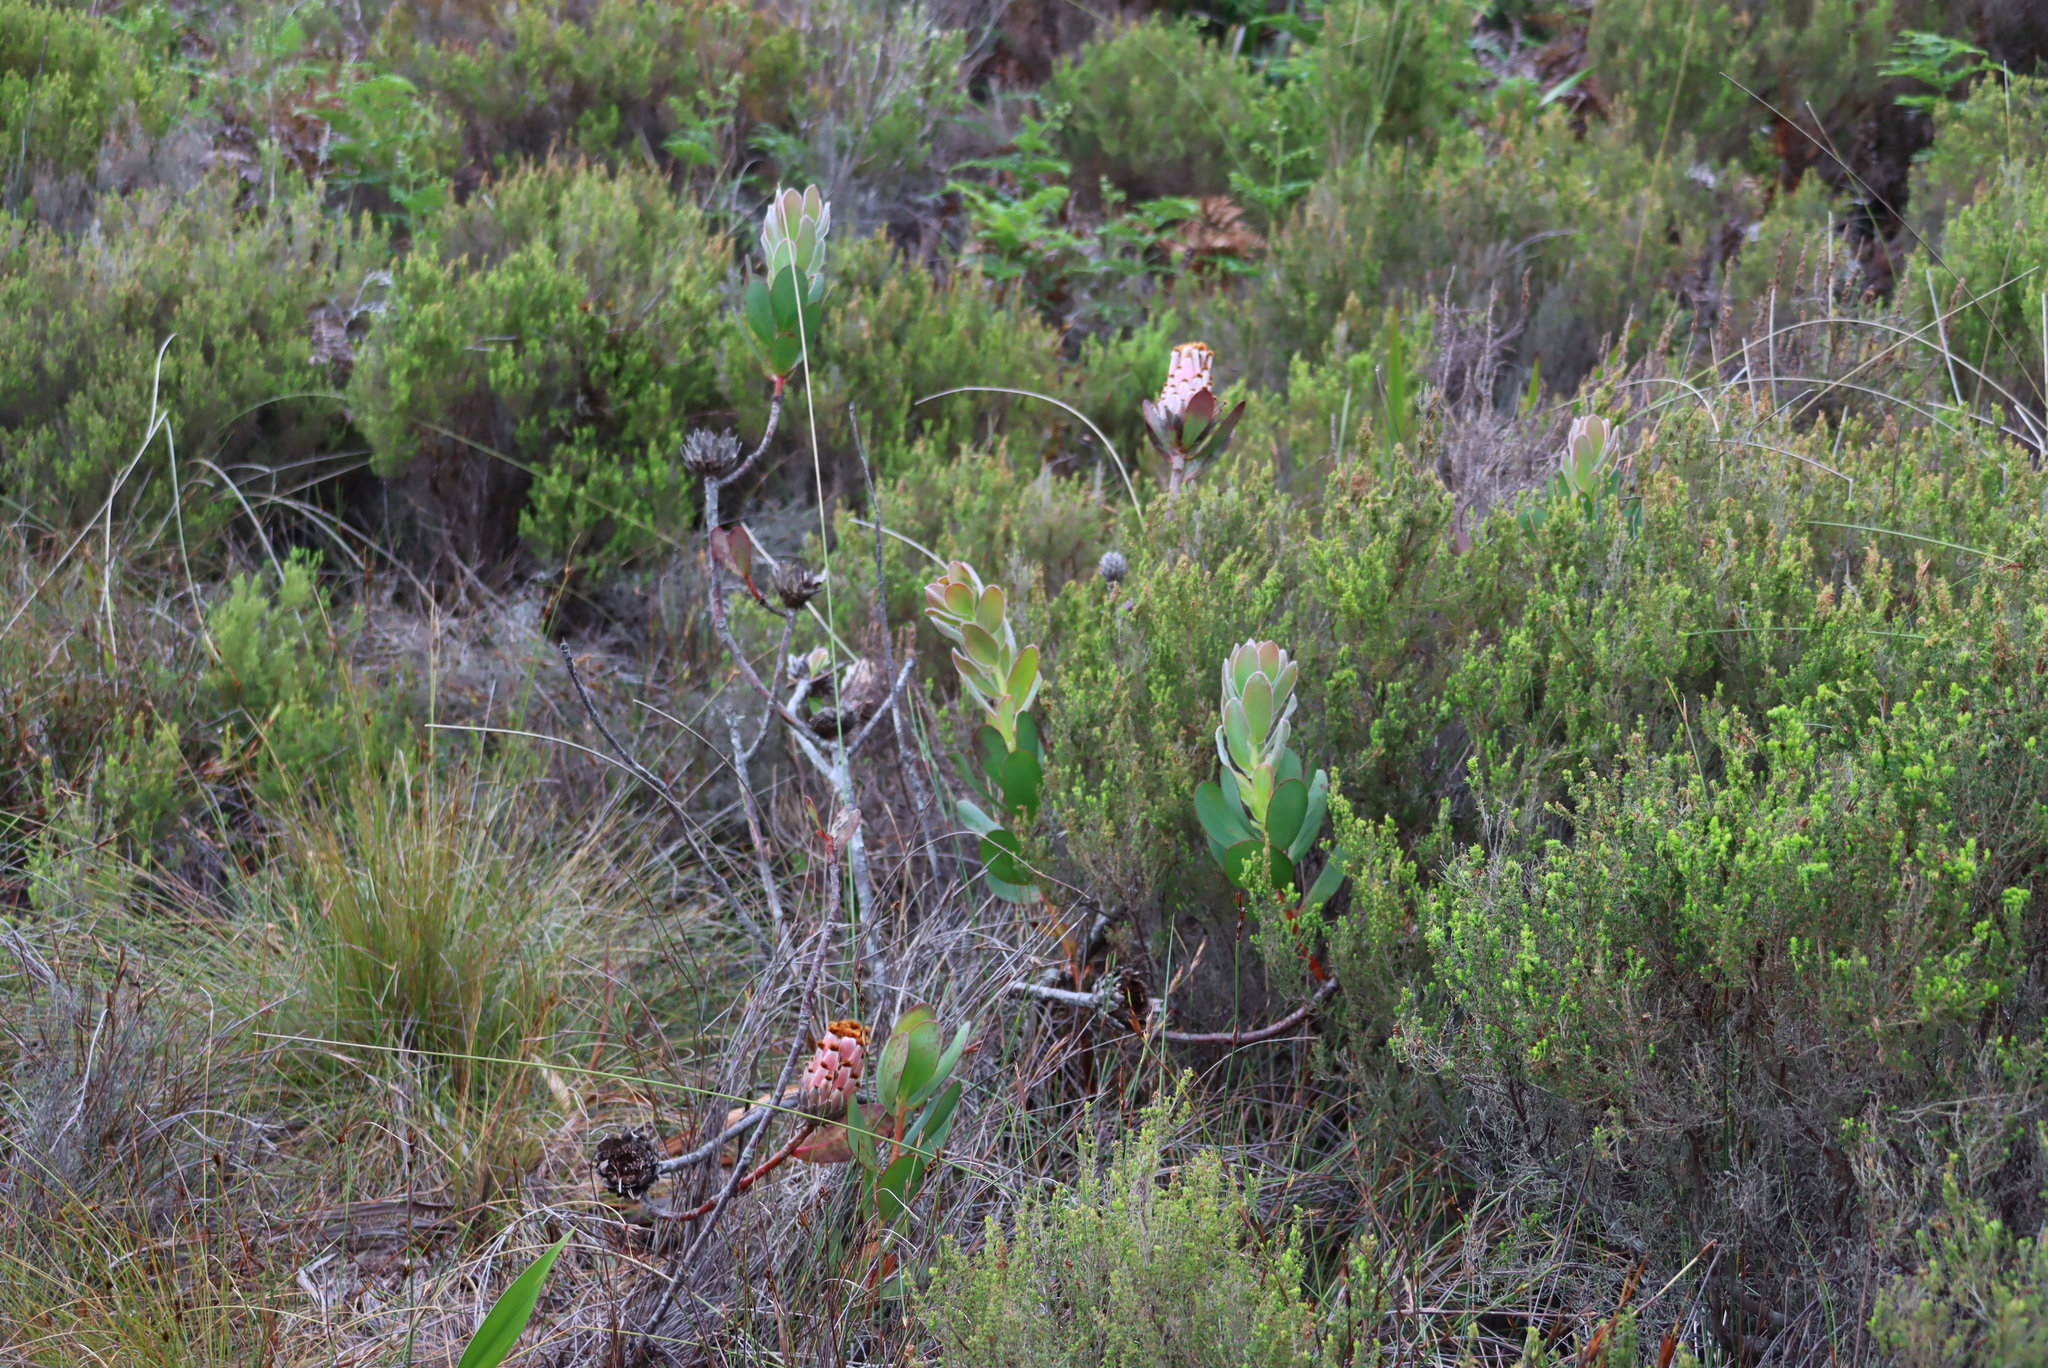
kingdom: Plantae
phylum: Tracheophyta
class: Magnoliopsida
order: Proteales
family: Proteaceae
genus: Protea
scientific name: Protea speciosa
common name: Brown-beard sugarbush
